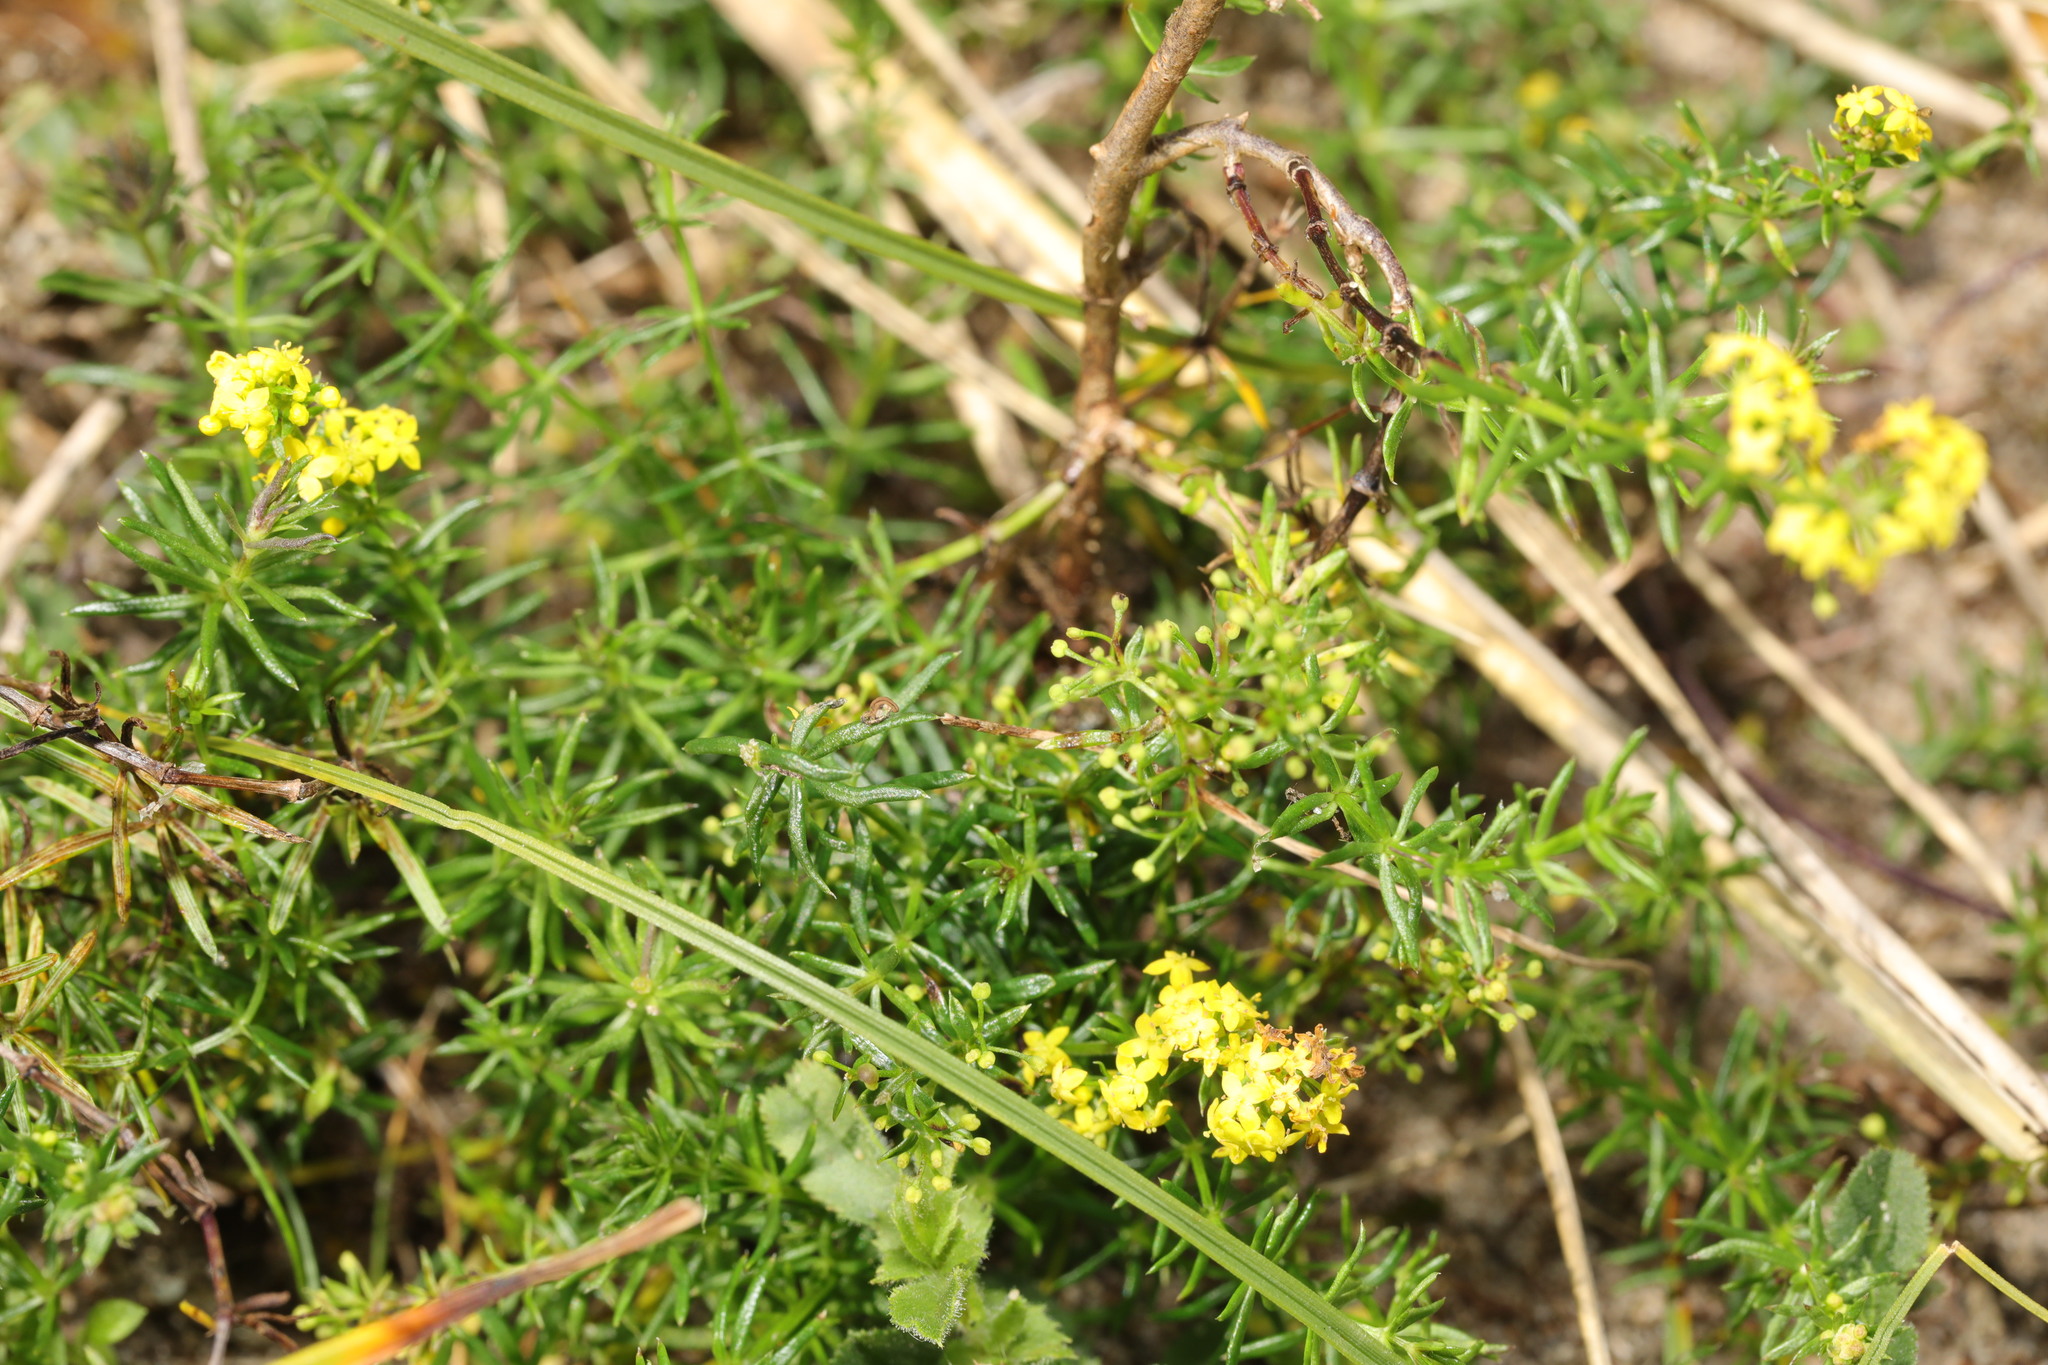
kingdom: Plantae
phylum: Tracheophyta
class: Magnoliopsida
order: Gentianales
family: Rubiaceae
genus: Galium
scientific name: Galium verum
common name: Lady's bedstraw
